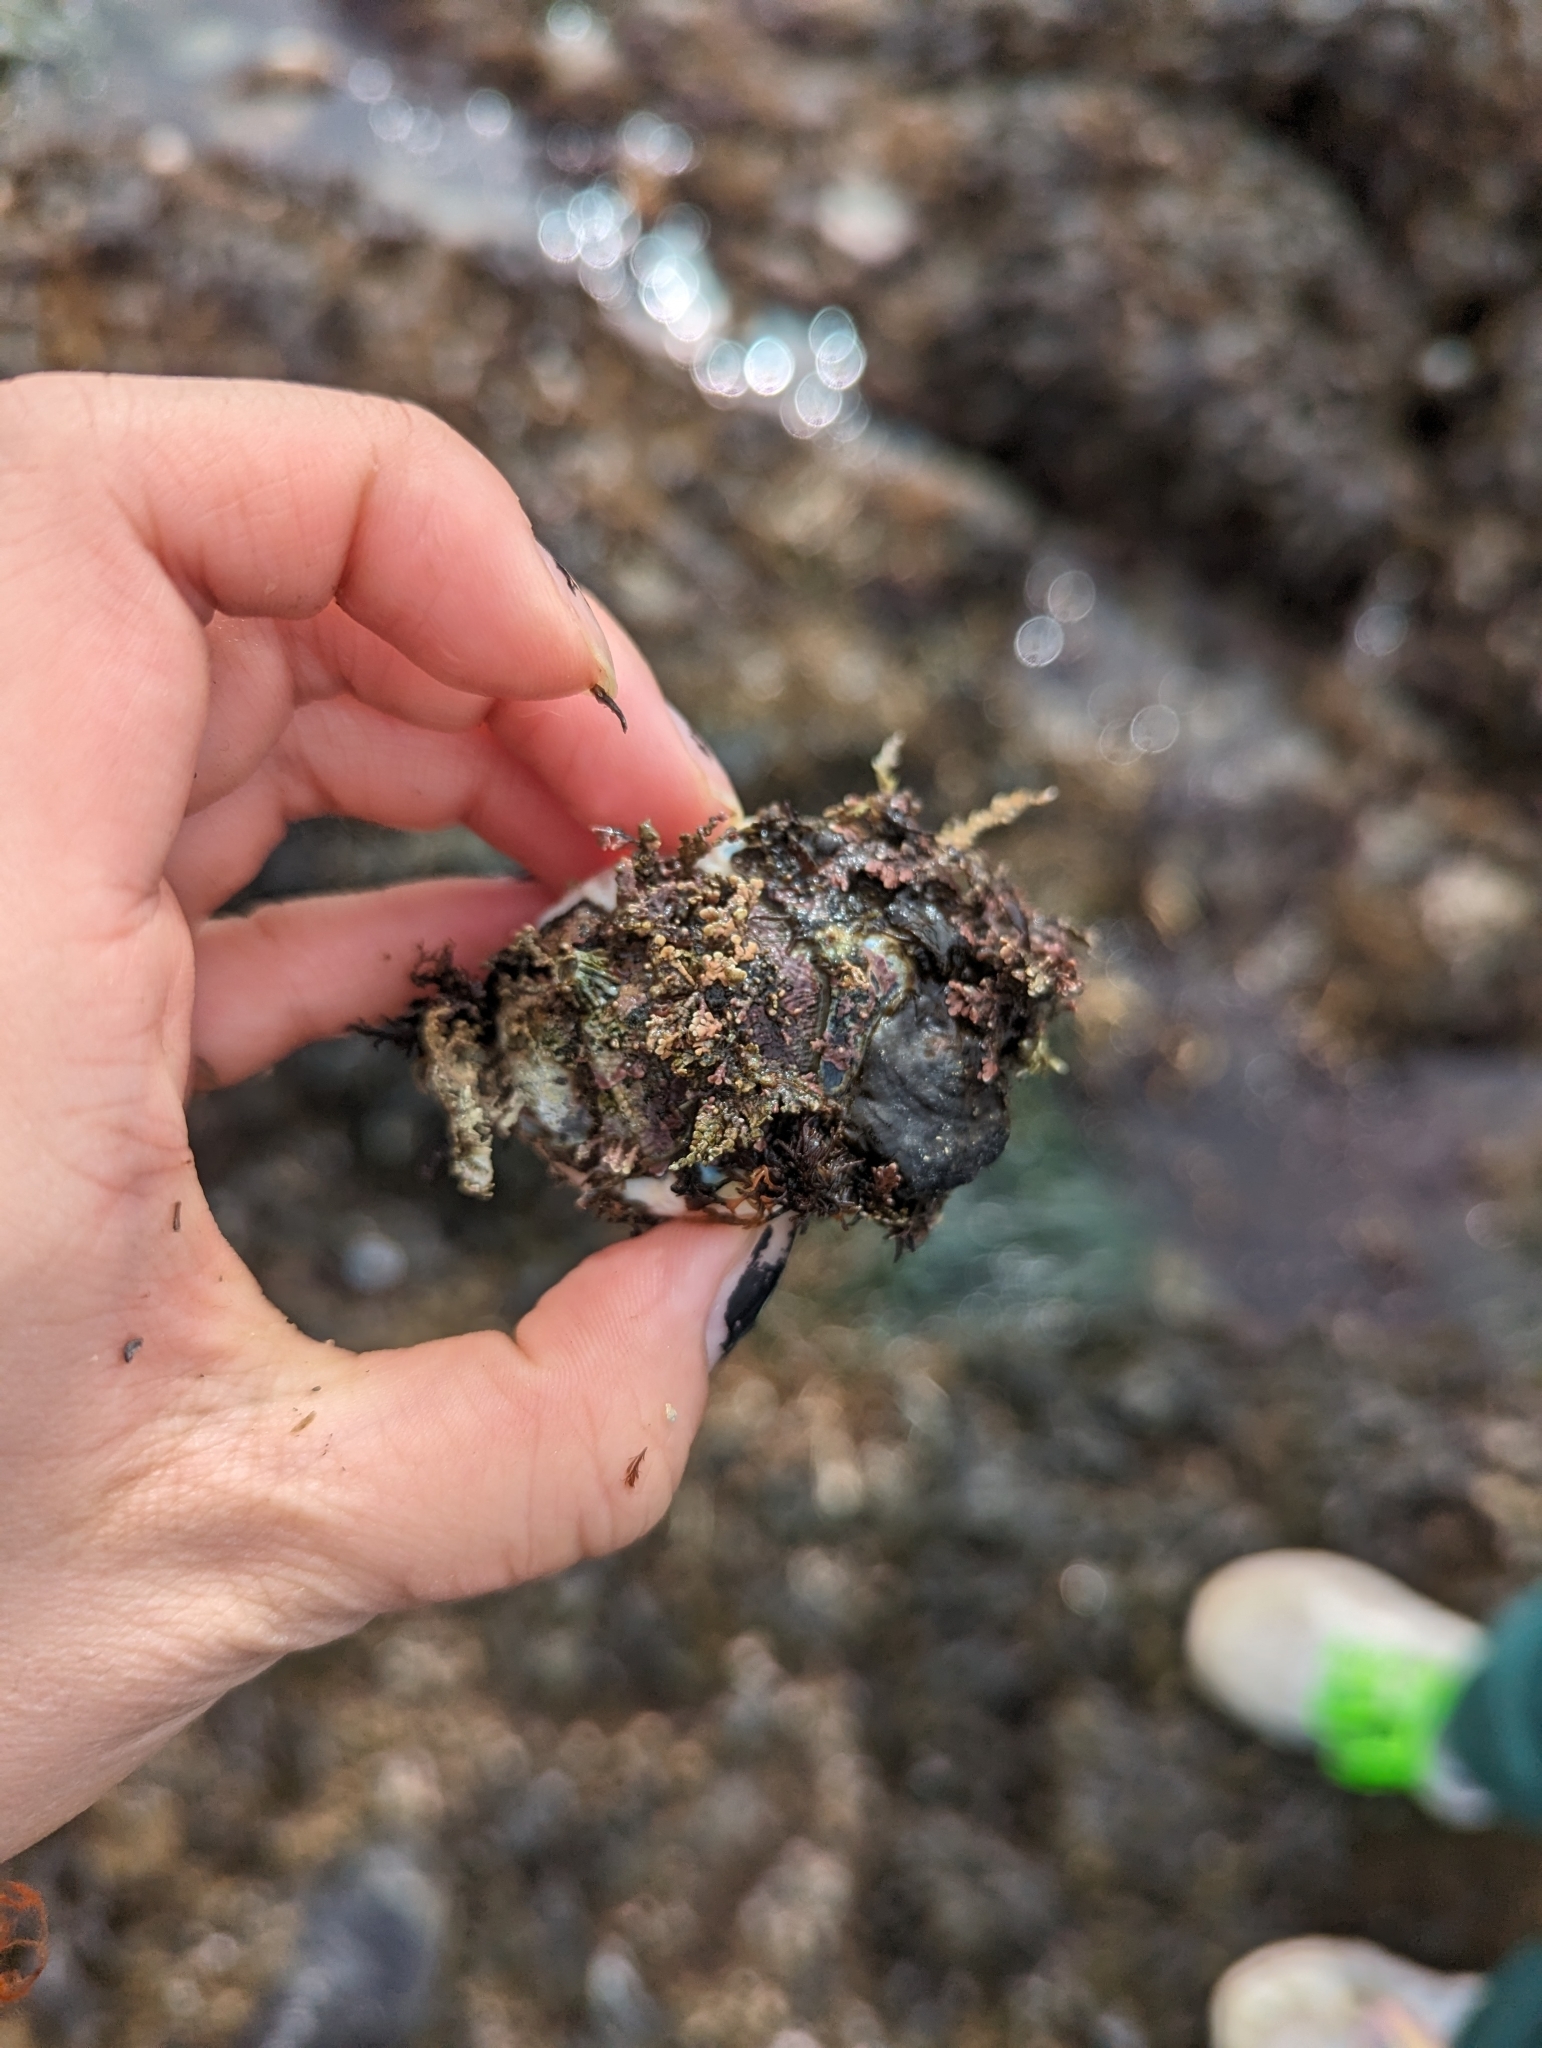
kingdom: Animalia
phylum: Mollusca
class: Polyplacophora
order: Chitonida
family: Mopaliidae
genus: Mopalia
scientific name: Mopalia muscosa
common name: Mossy chiton
